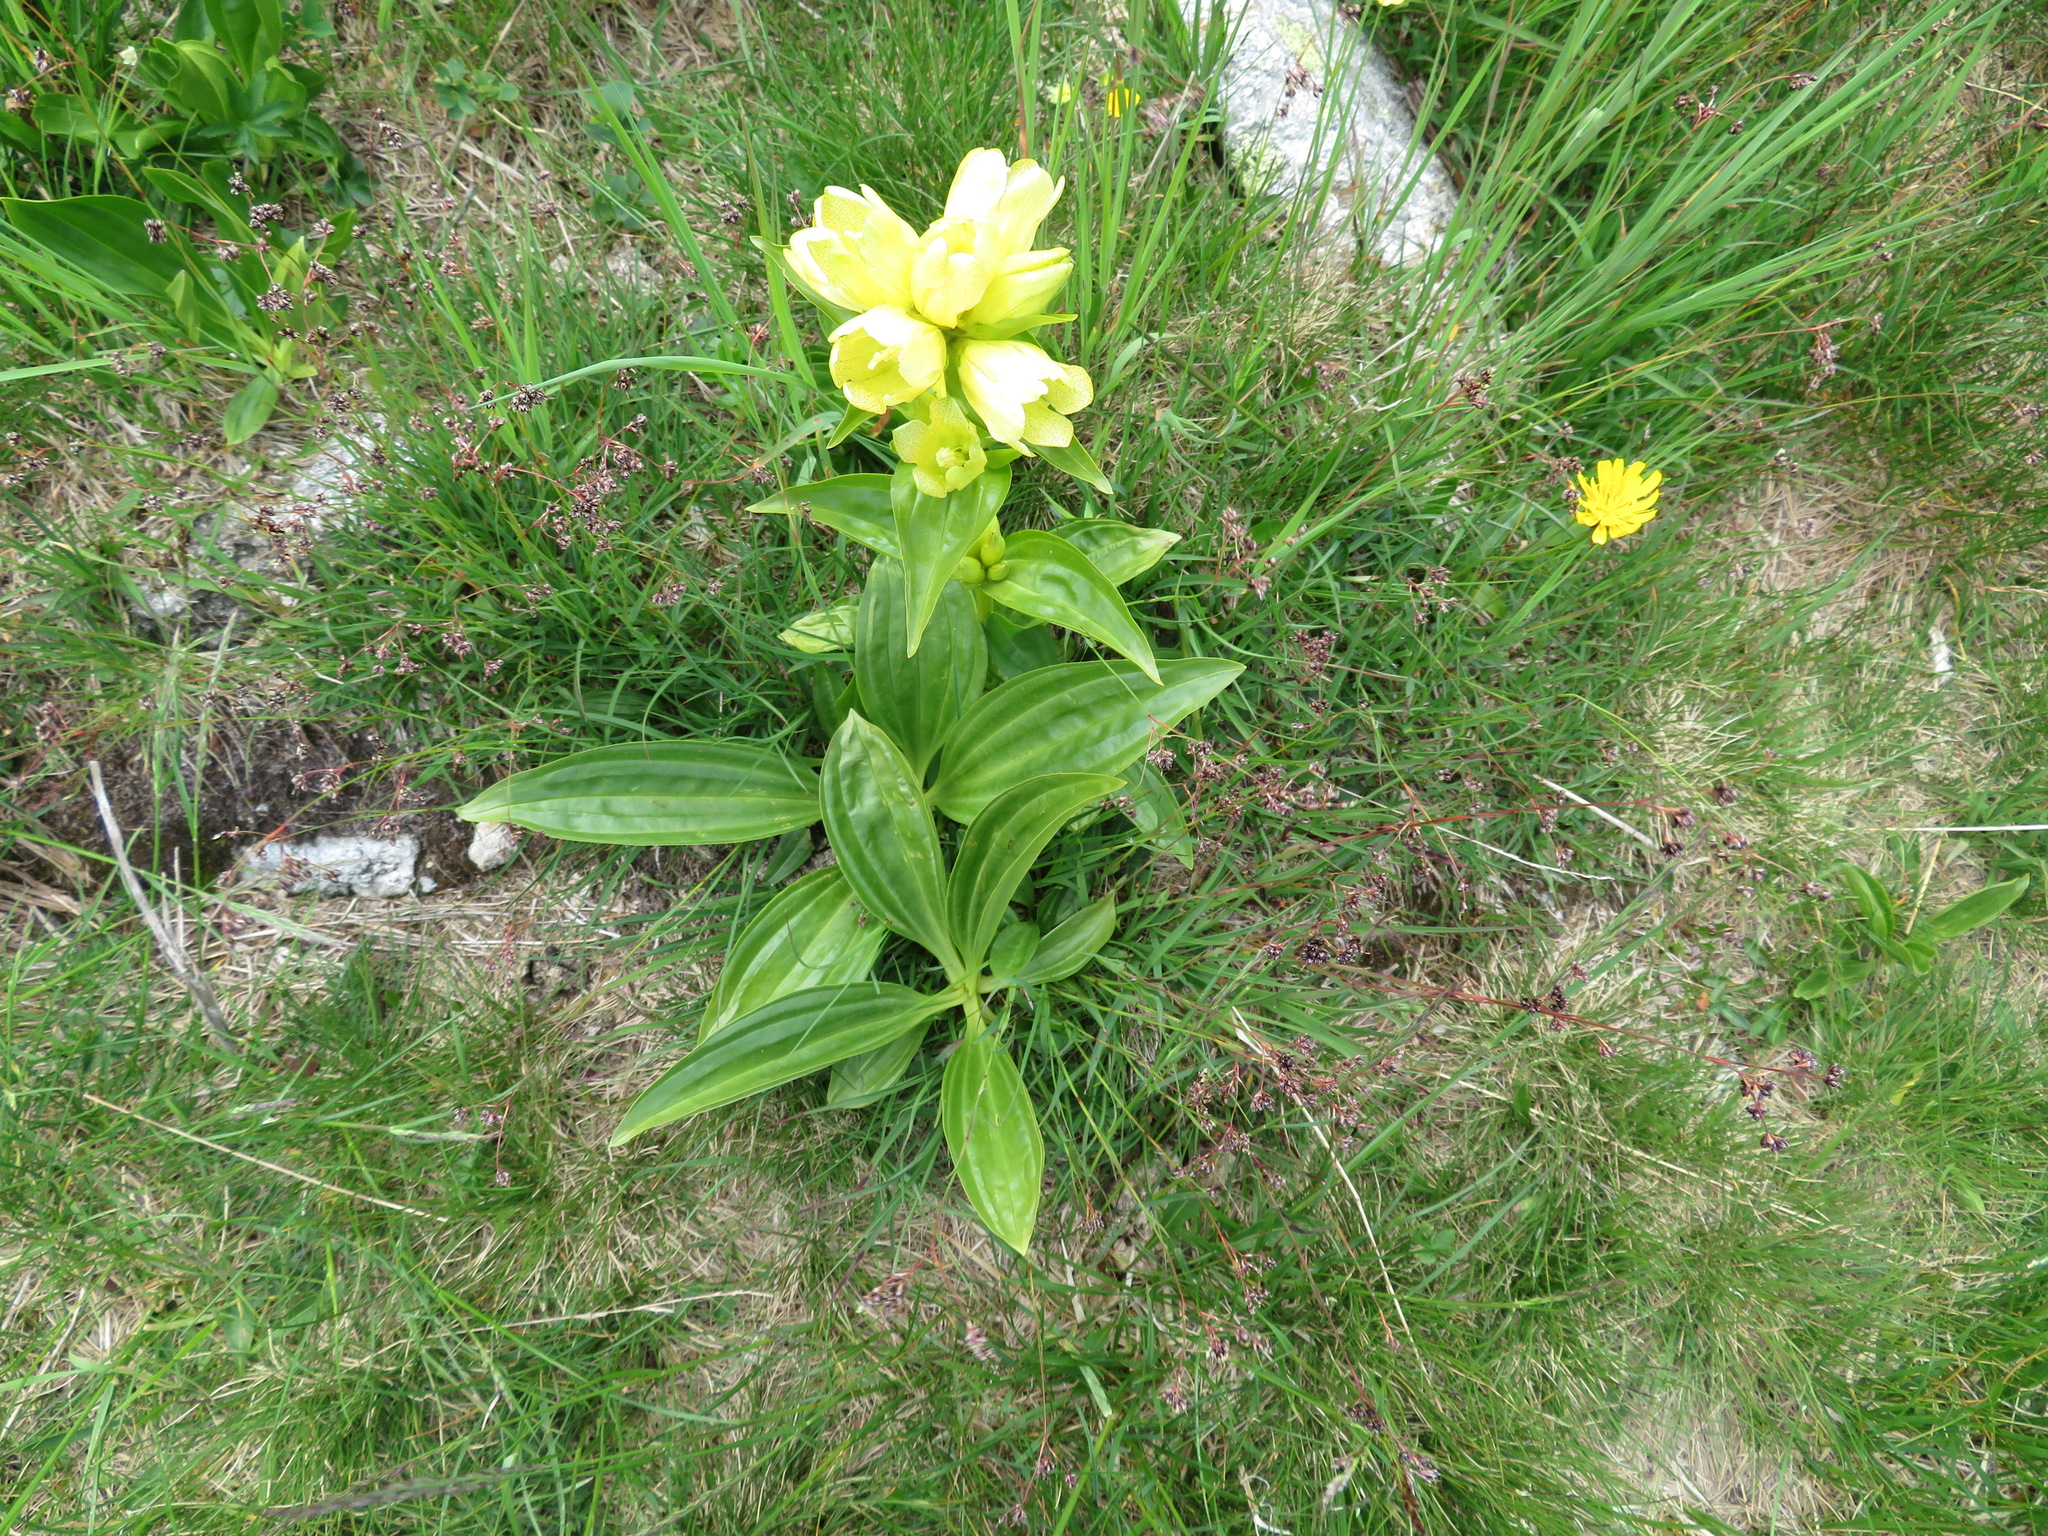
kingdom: Plantae
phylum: Tracheophyta
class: Magnoliopsida
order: Gentianales
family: Gentianaceae
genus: Gentiana
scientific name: Gentiana punctata
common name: Spotted gentian
